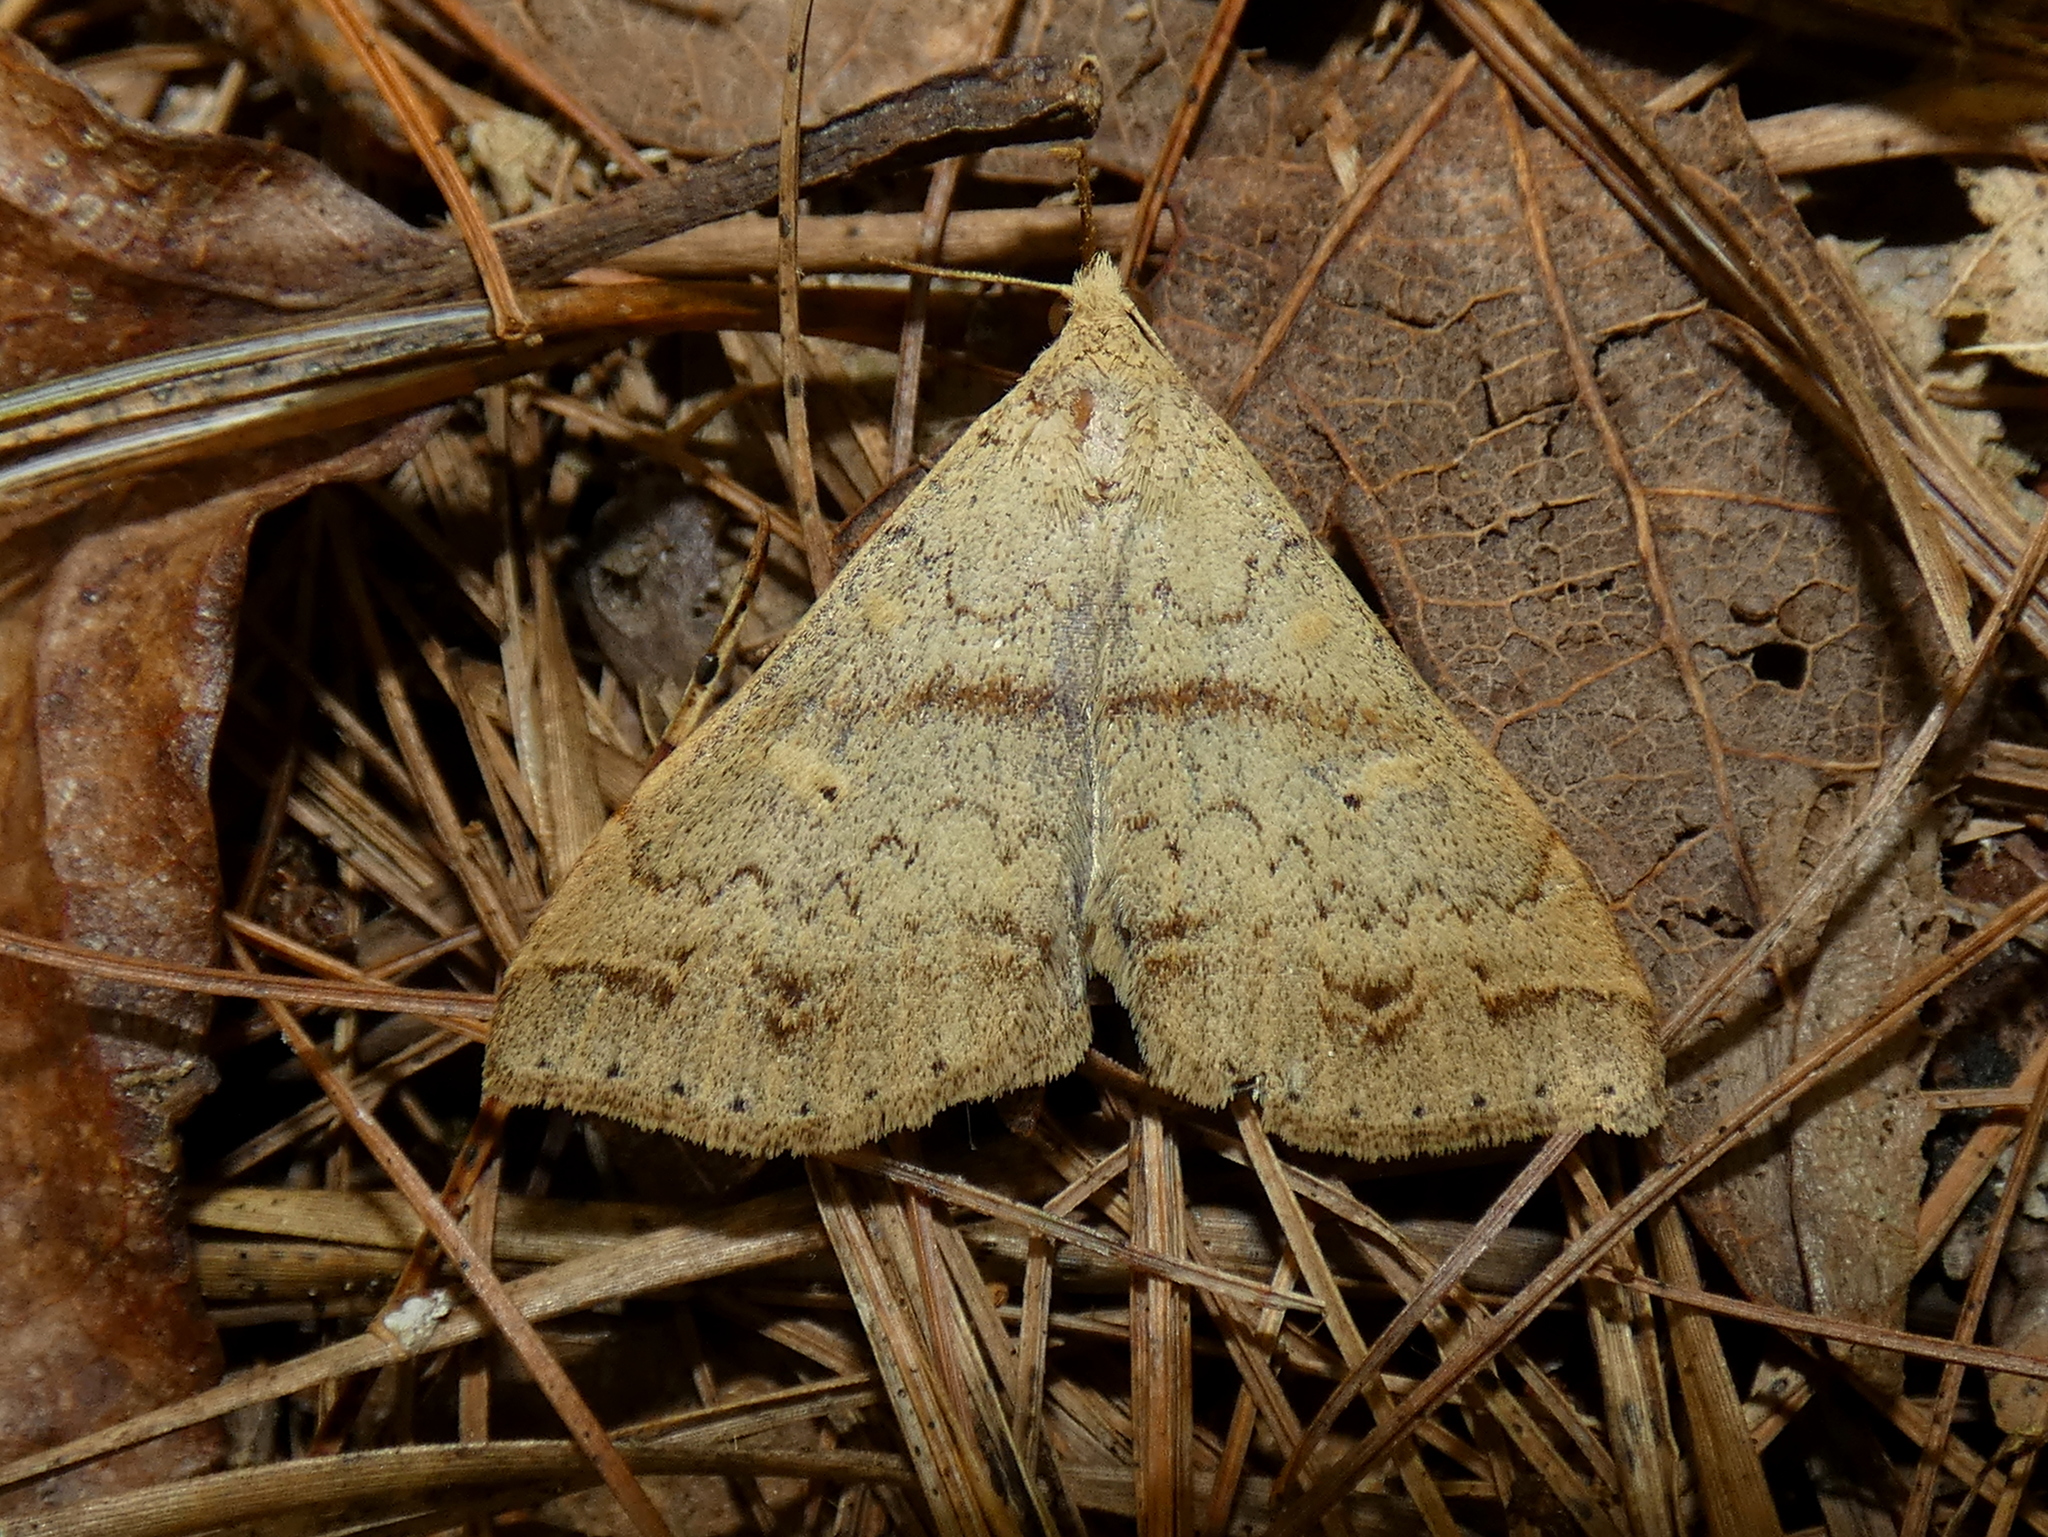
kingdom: Animalia
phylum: Arthropoda
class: Insecta
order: Lepidoptera
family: Erebidae
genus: Renia
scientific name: Renia discoloralis
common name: Discolored renia moth
